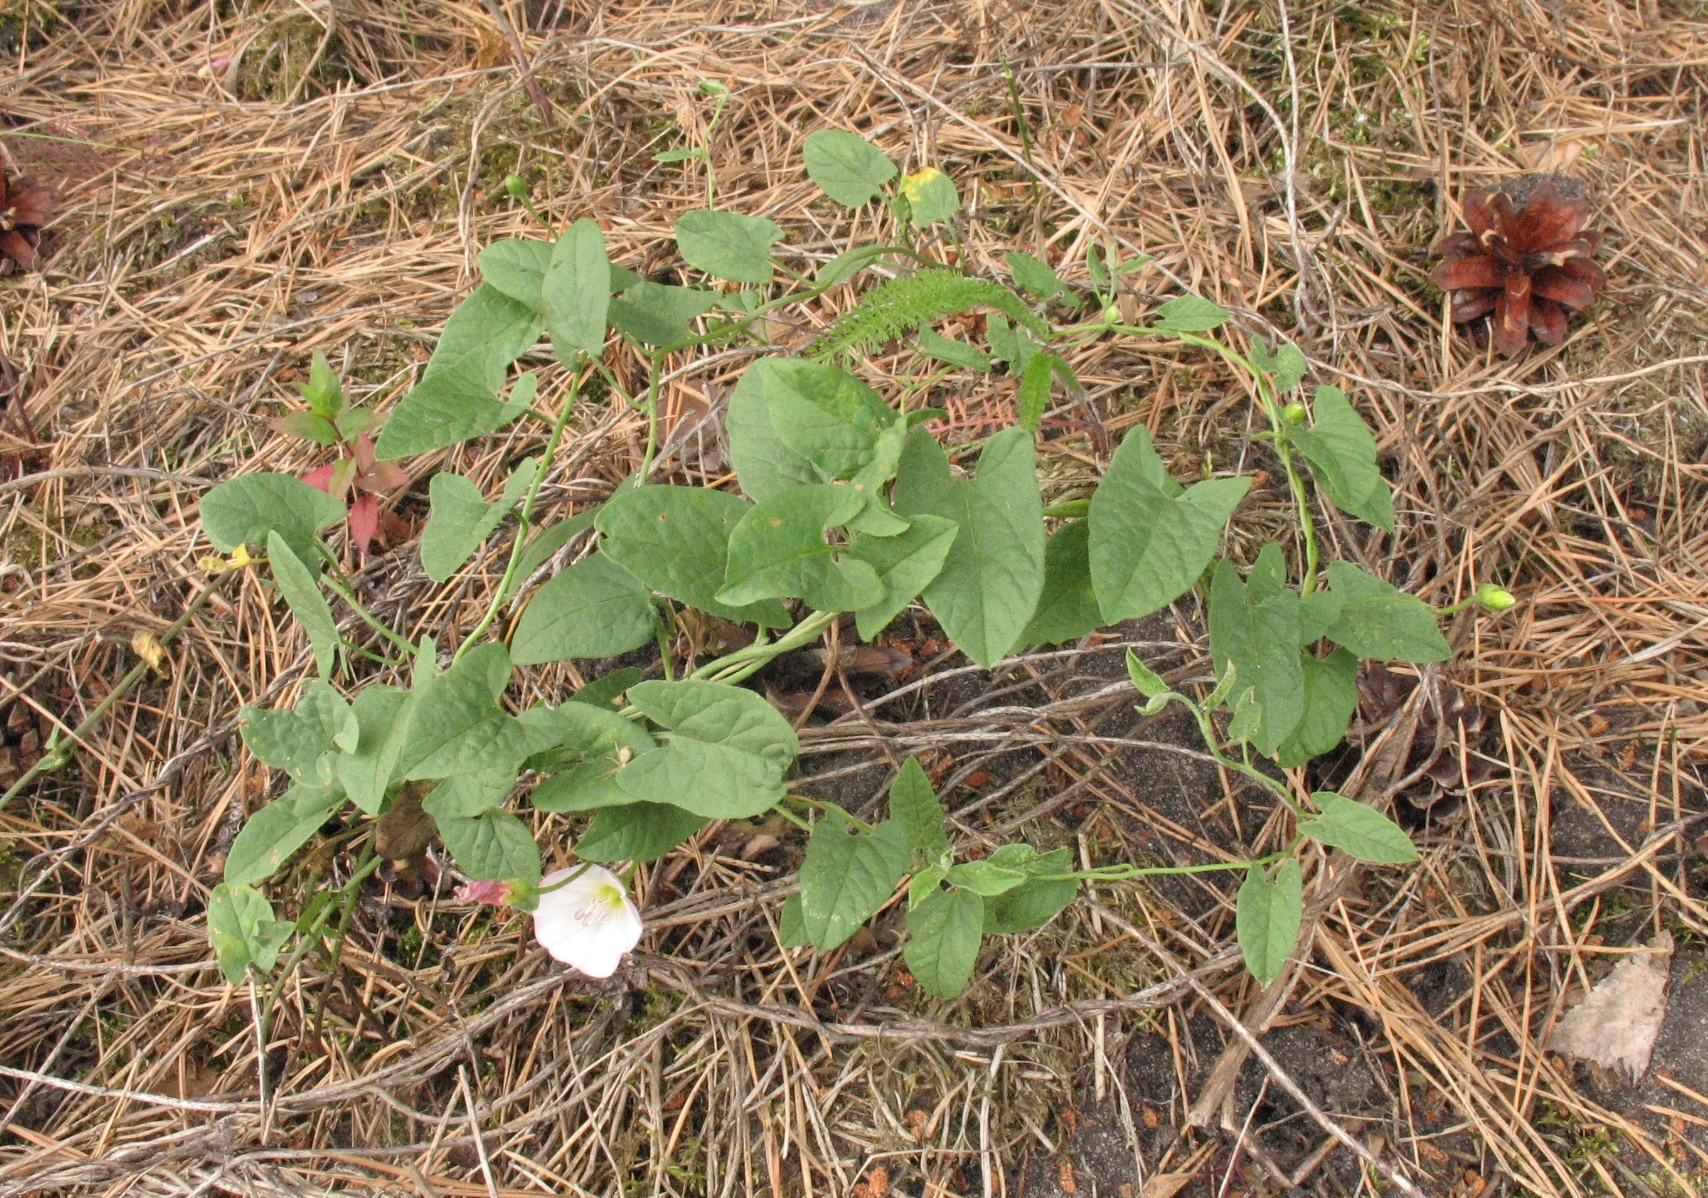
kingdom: Plantae
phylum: Tracheophyta
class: Magnoliopsida
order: Solanales
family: Convolvulaceae
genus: Convolvulus
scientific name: Convolvulus arvensis
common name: Field bindweed
